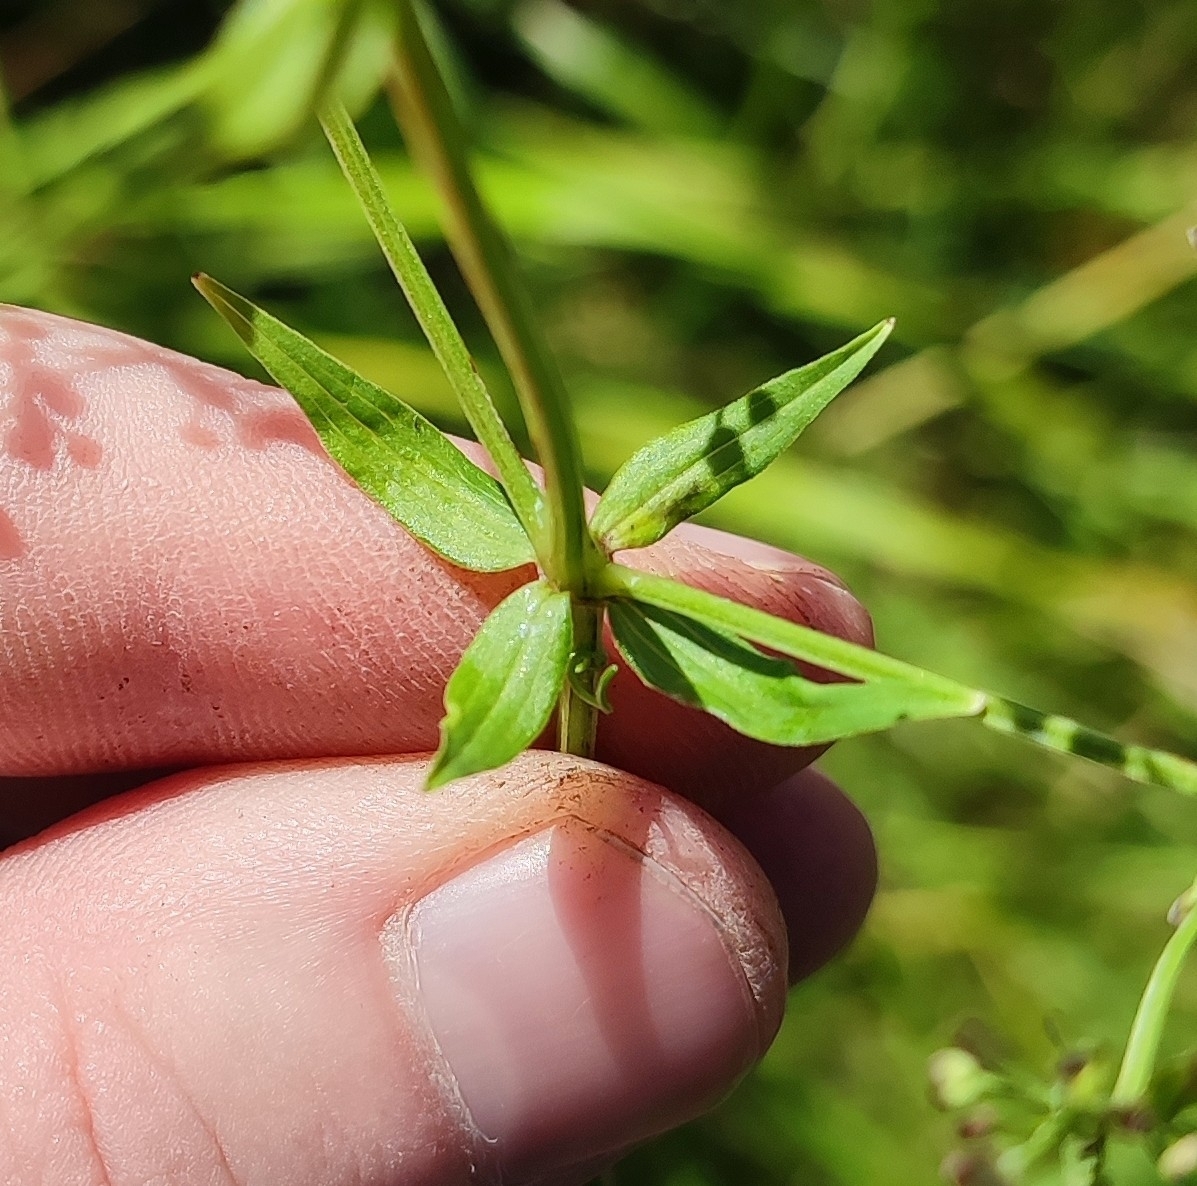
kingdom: Plantae
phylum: Tracheophyta
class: Magnoliopsida
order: Gentianales
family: Rubiaceae
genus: Galium
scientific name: Galium pseudoboreale
